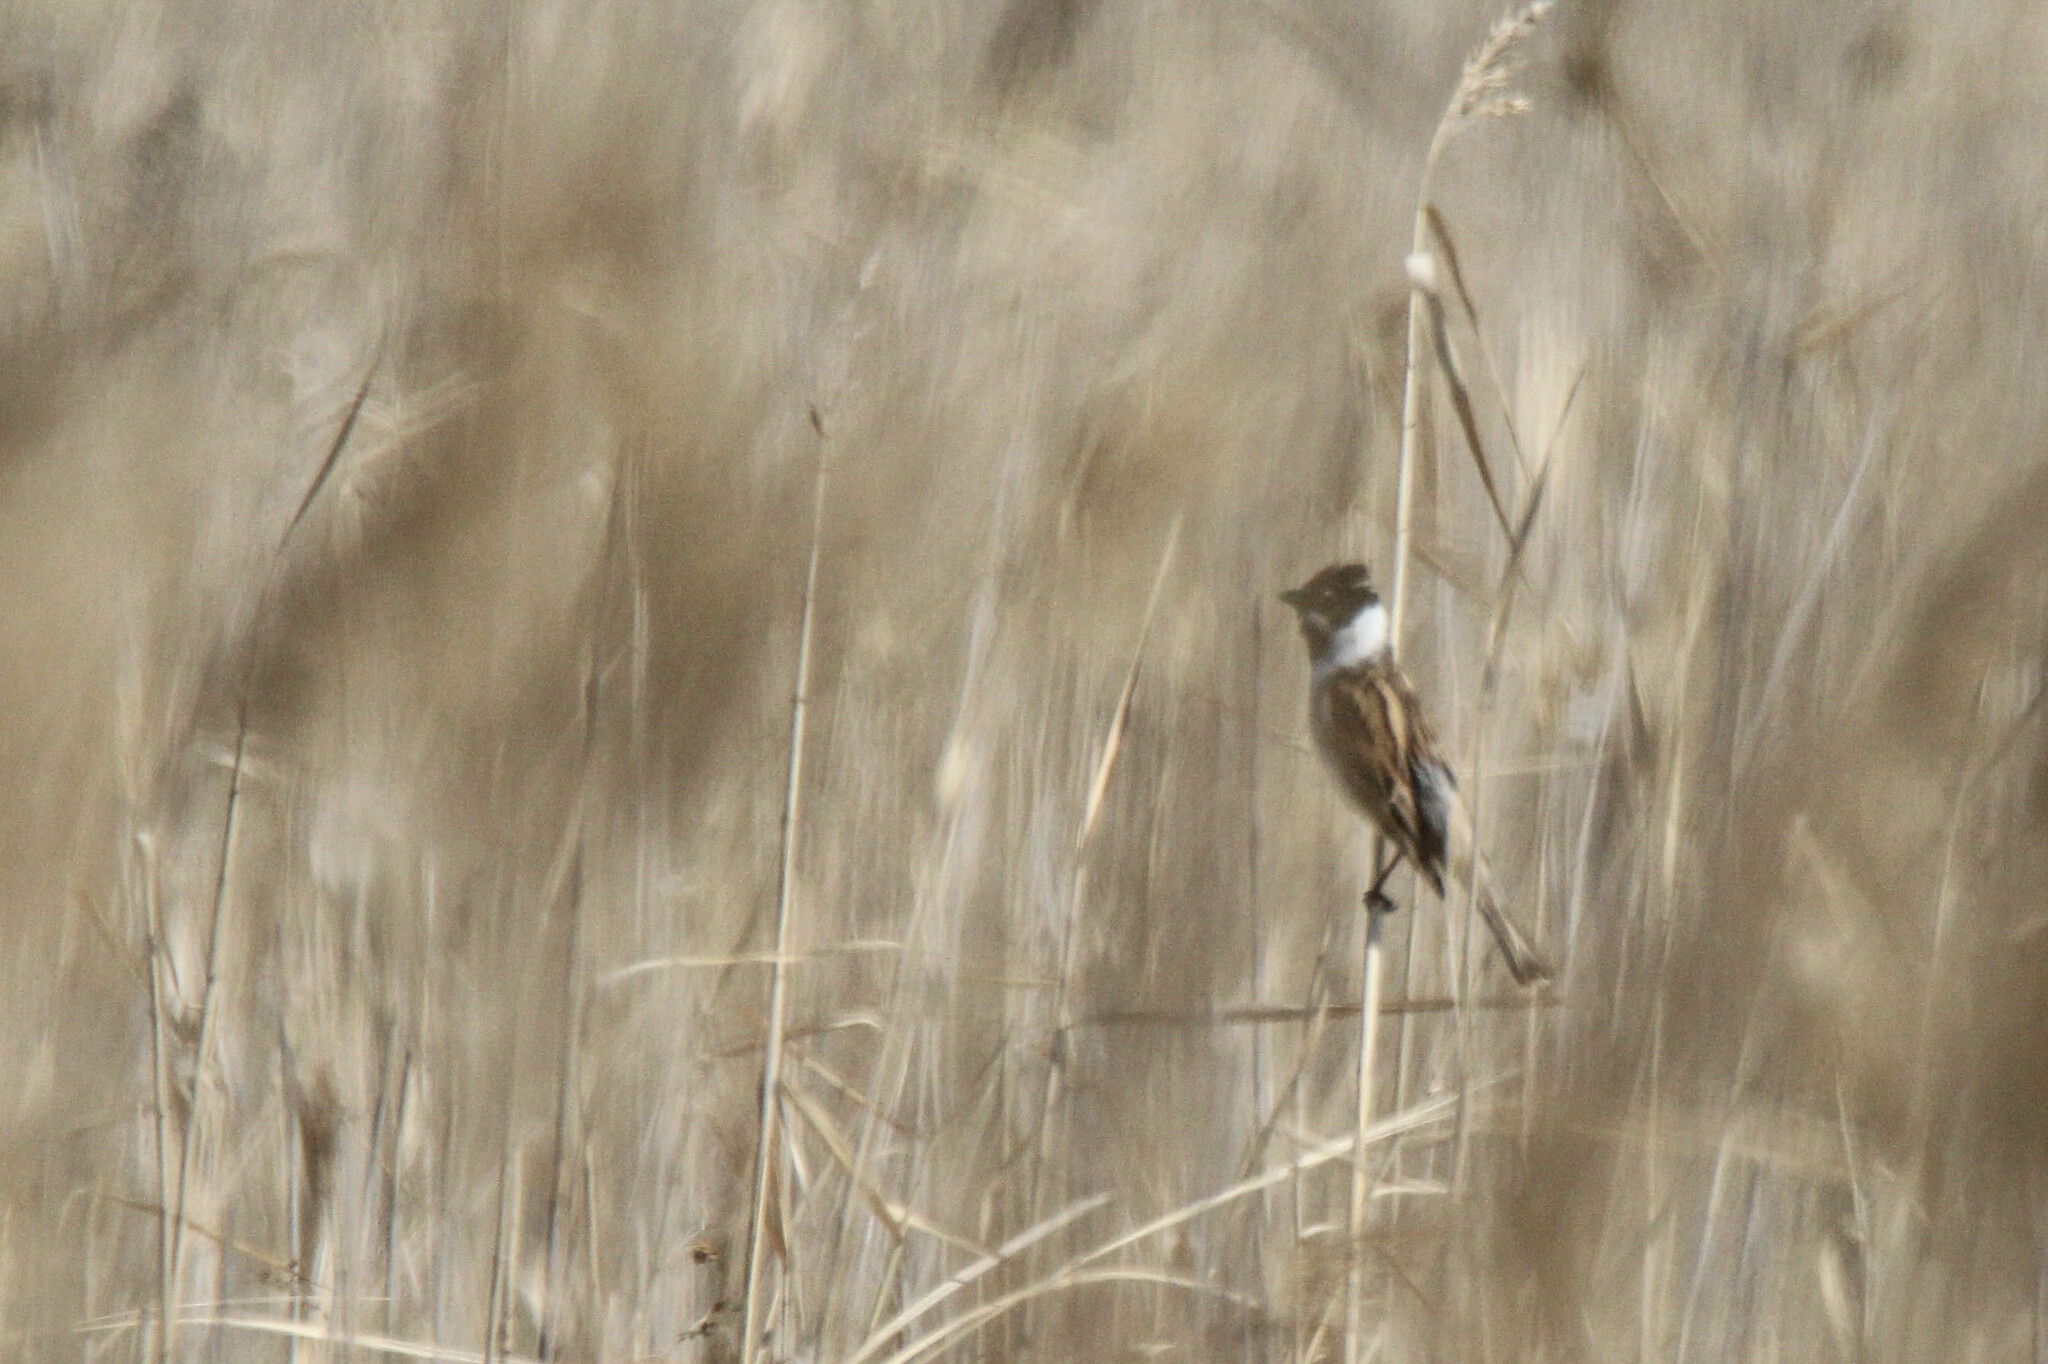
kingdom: Animalia
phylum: Chordata
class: Aves
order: Passeriformes
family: Emberizidae
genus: Emberiza
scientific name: Emberiza schoeniclus
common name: Reed bunting
